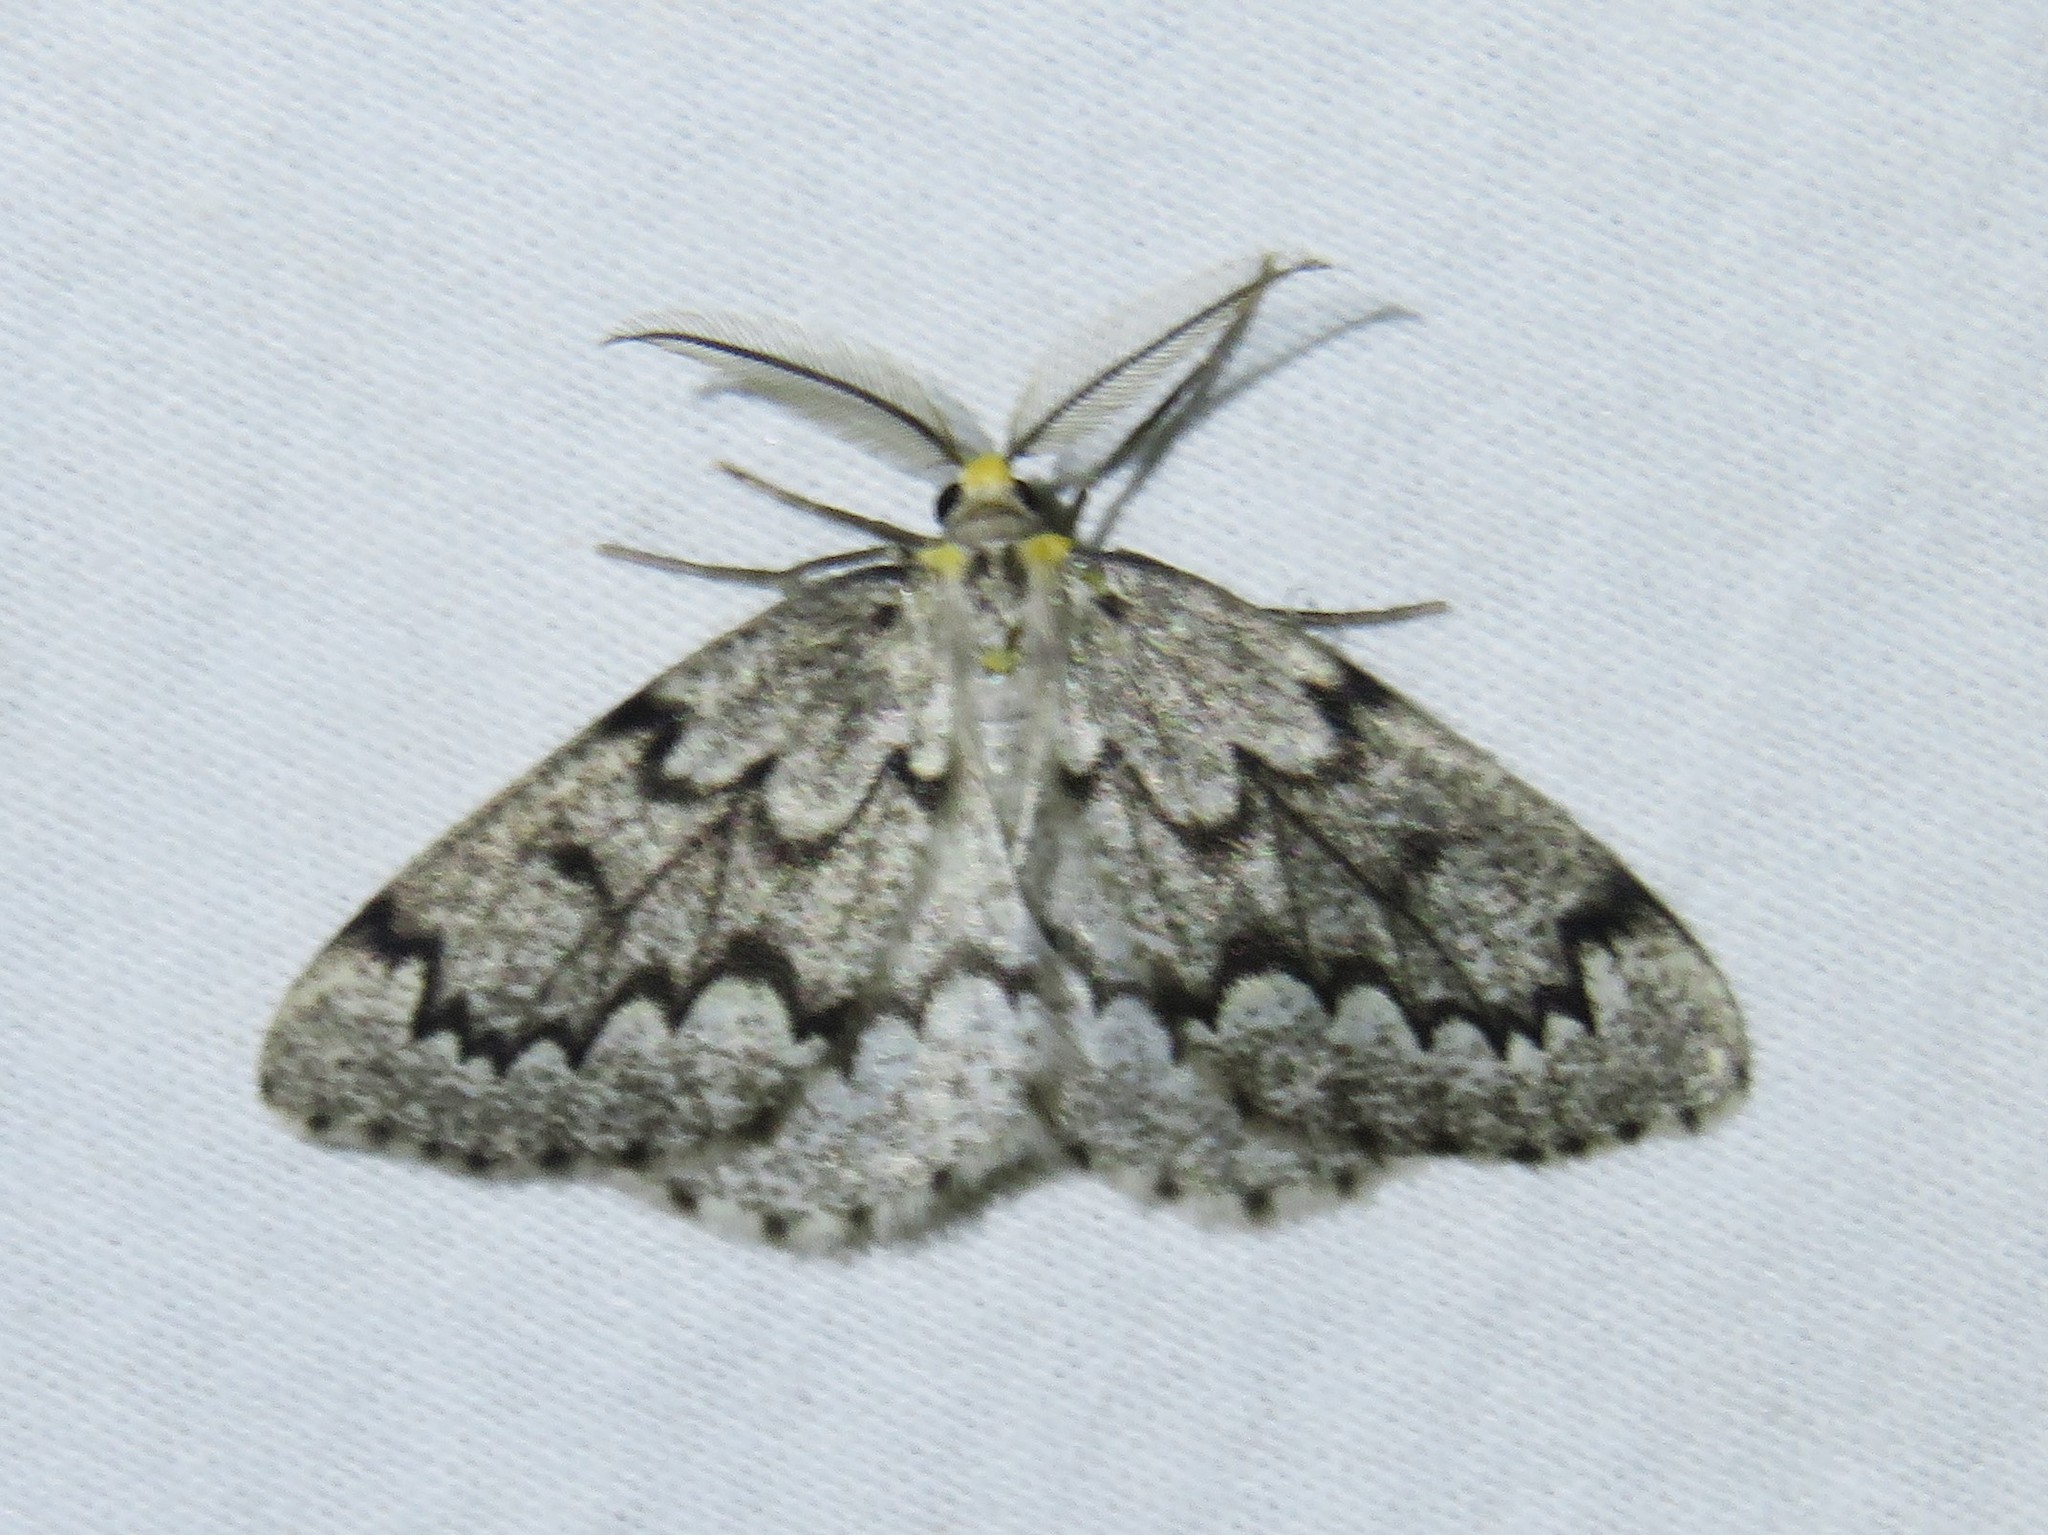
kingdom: Animalia
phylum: Arthropoda
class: Insecta
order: Lepidoptera
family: Geometridae
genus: Nepytia
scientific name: Nepytia canosaria
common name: False hemlock looper
